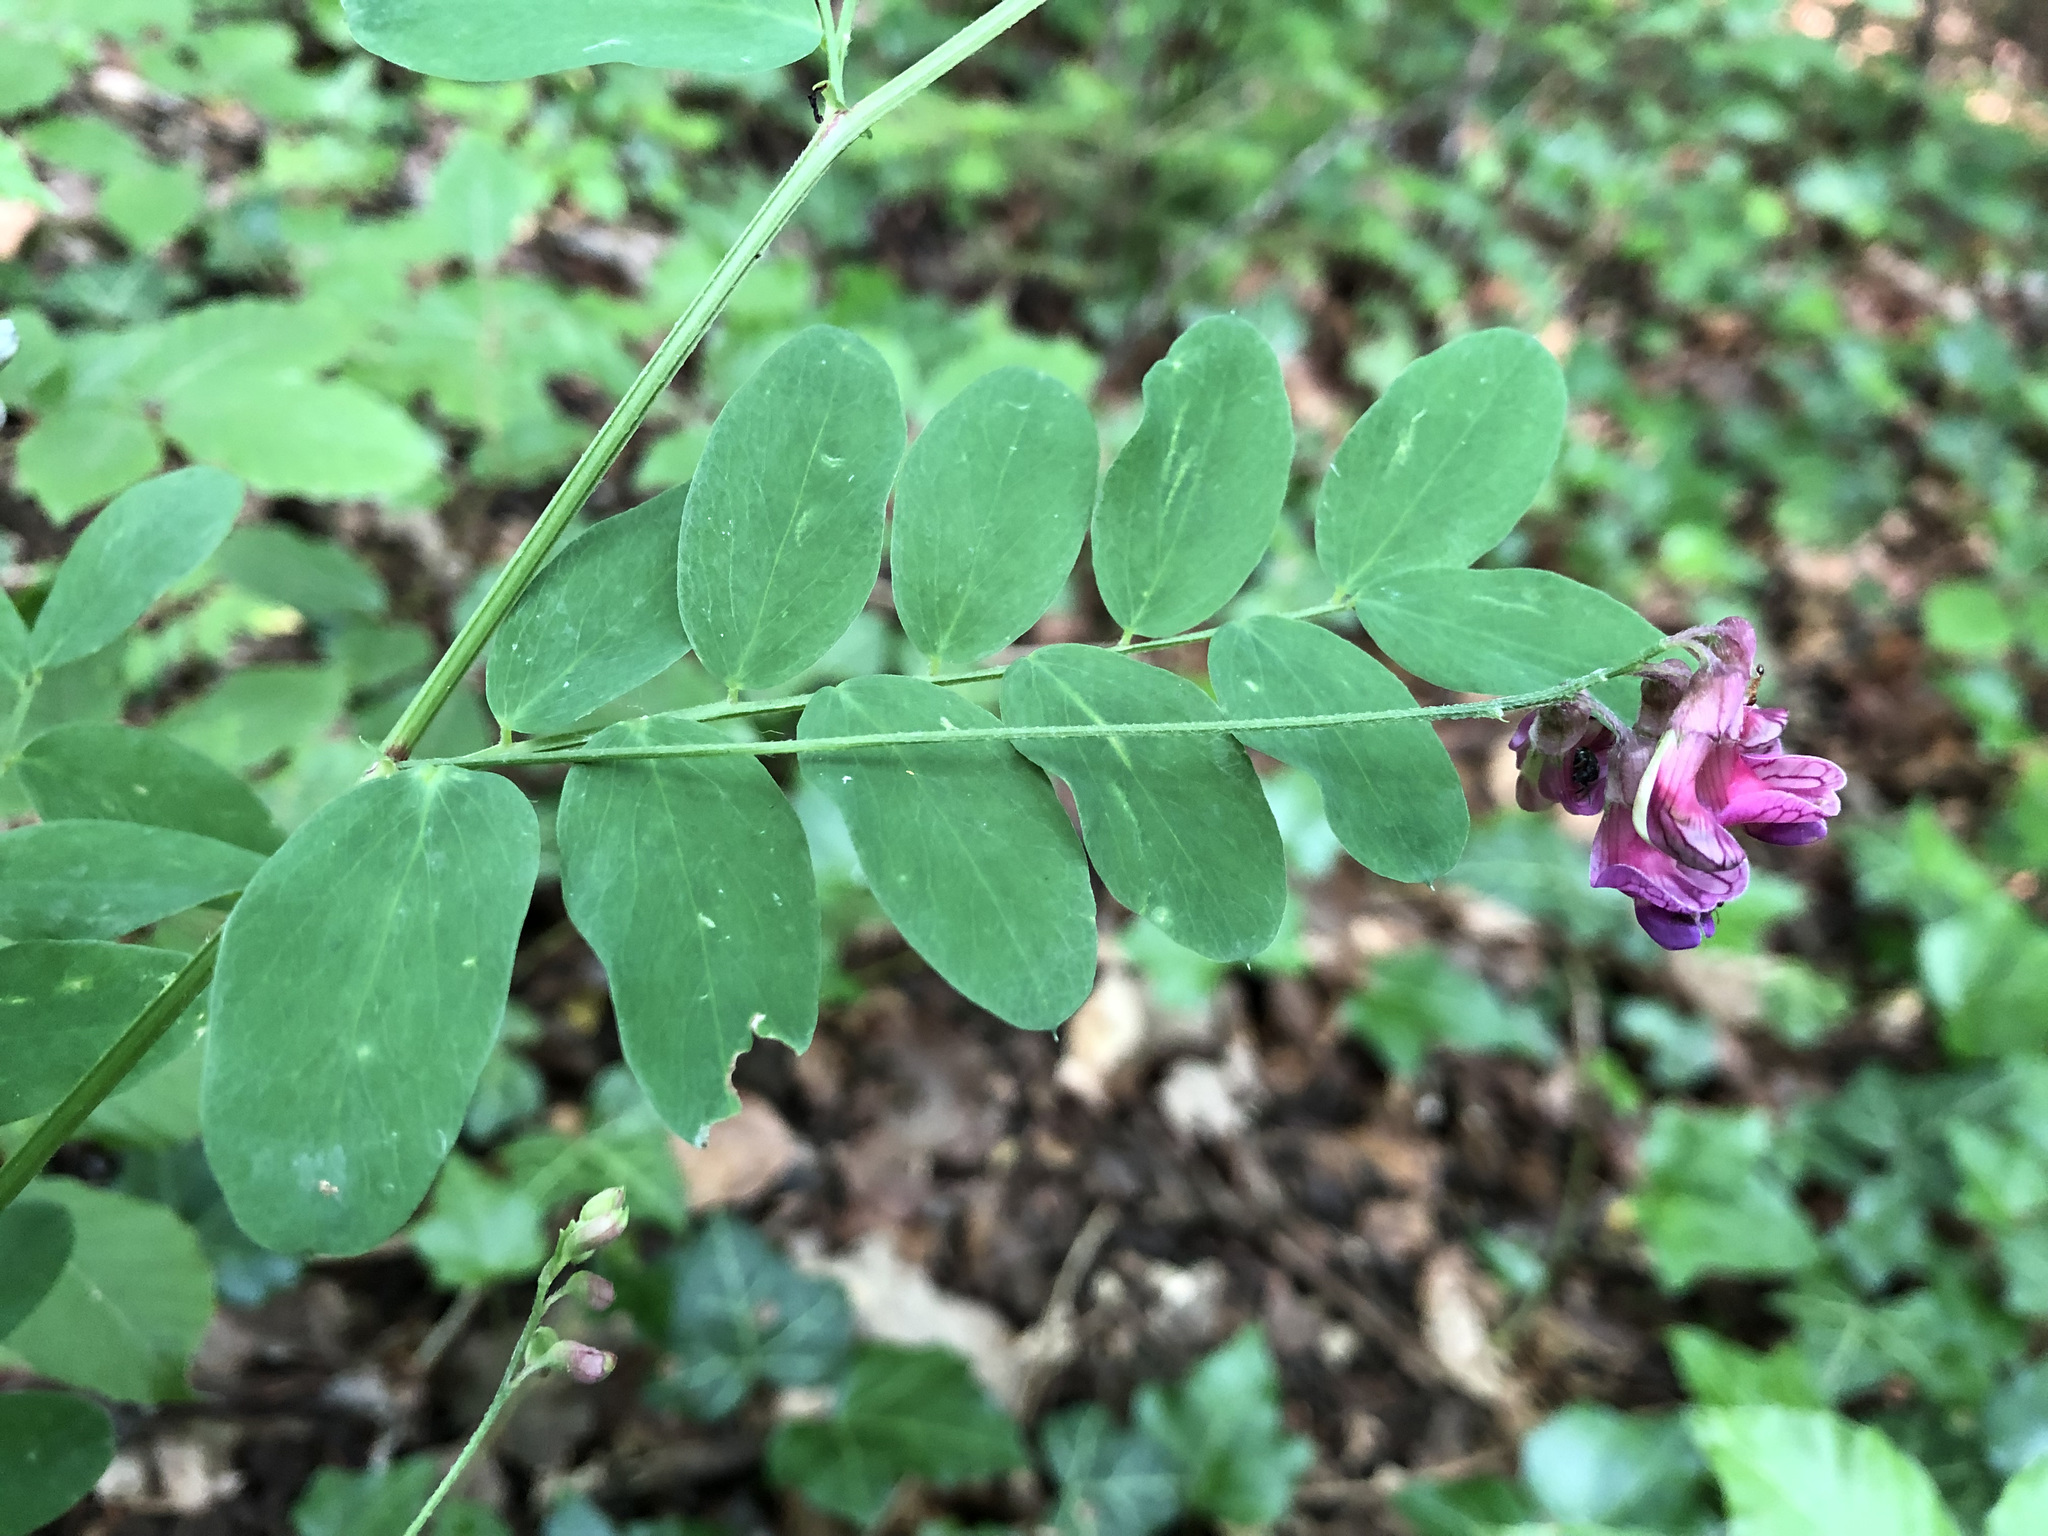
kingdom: Plantae
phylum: Tracheophyta
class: Magnoliopsida
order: Fabales
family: Fabaceae
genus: Lathyrus
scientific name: Lathyrus niger
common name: Black pea
